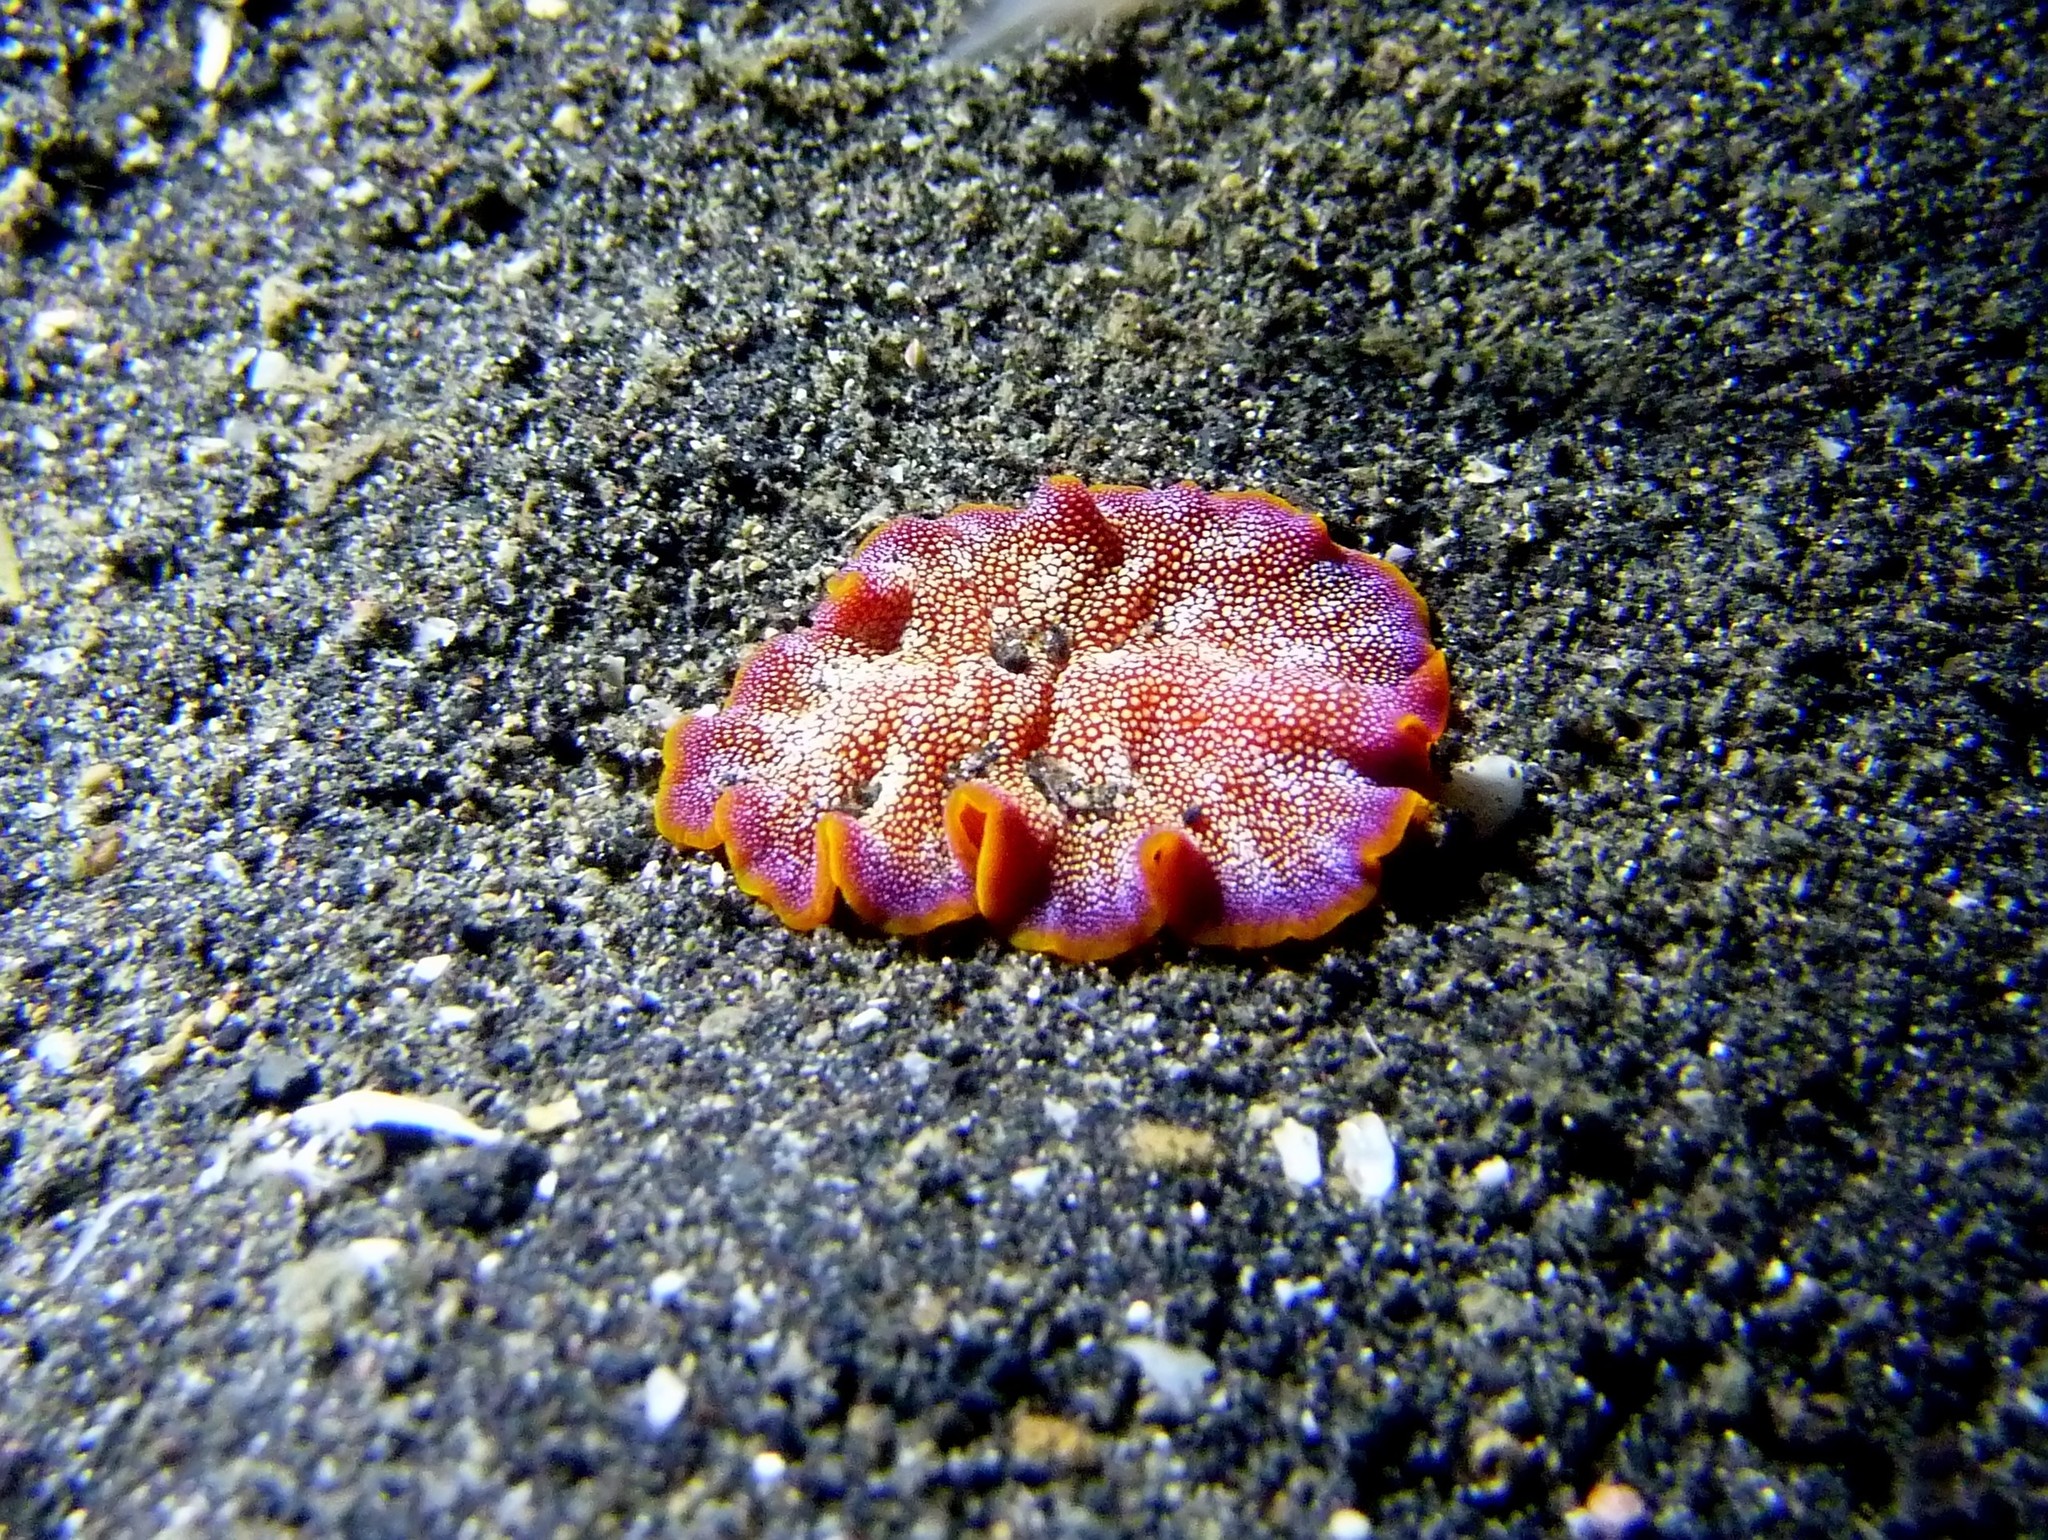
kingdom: Animalia
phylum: Platyhelminthes
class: Turbellaria
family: Pseudocerotidae
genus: Pseudoceros
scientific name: Pseudoceros ferrugineus
